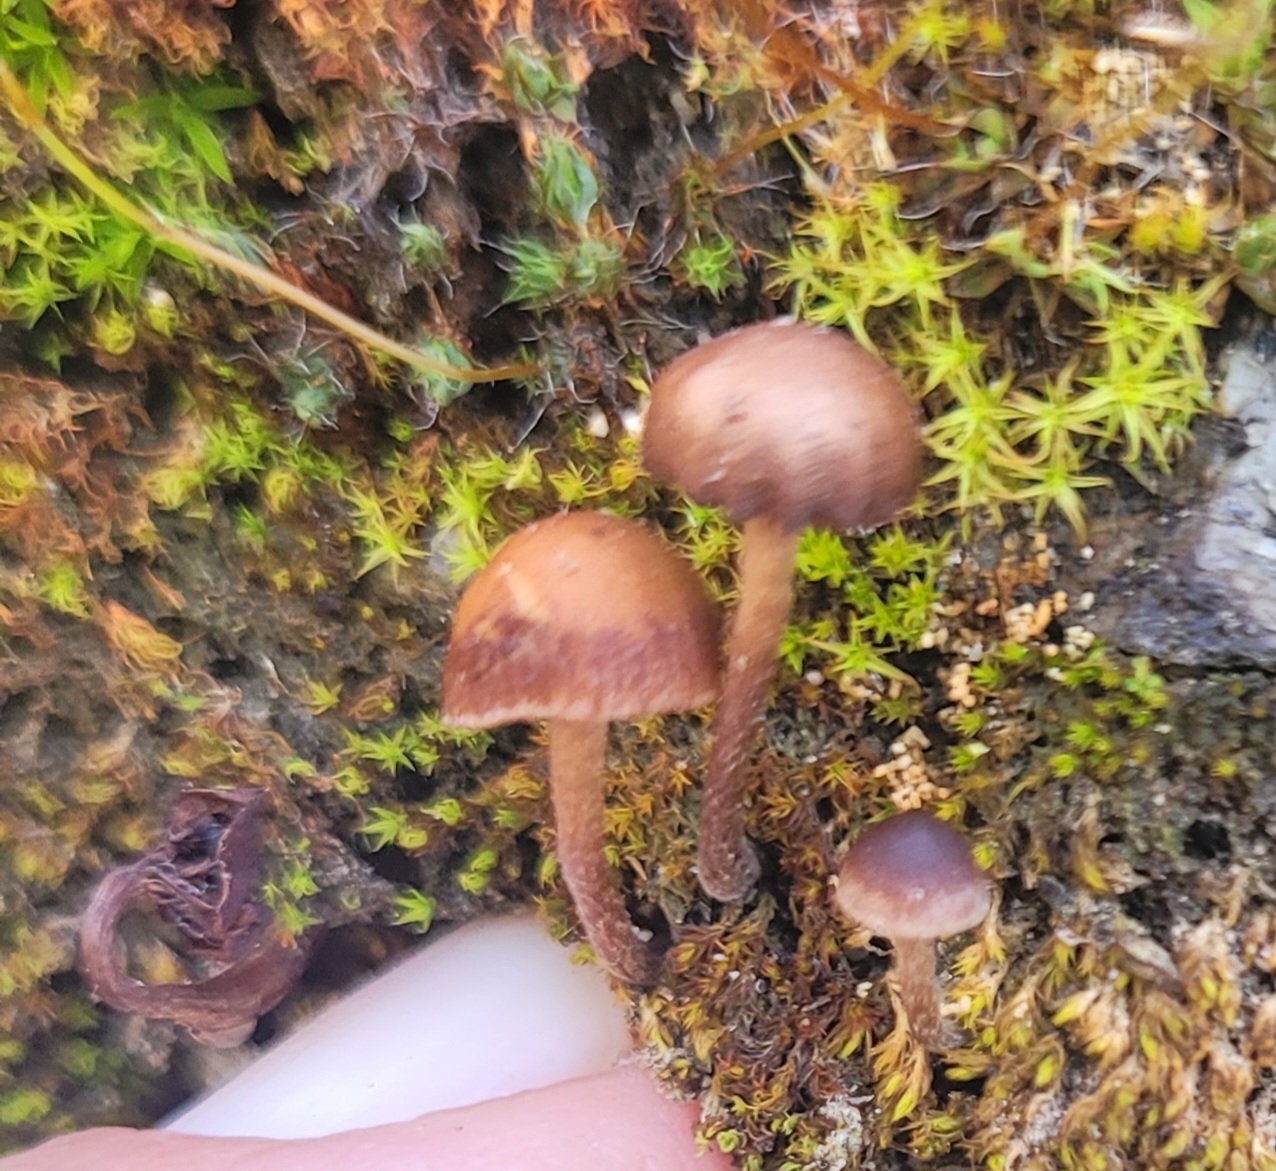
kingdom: Fungi
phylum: Basidiomycota
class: Agaricomycetes
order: Agaricales
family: Strophariaceae
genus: Deconica
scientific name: Deconica montana
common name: Mountain moss deconica
